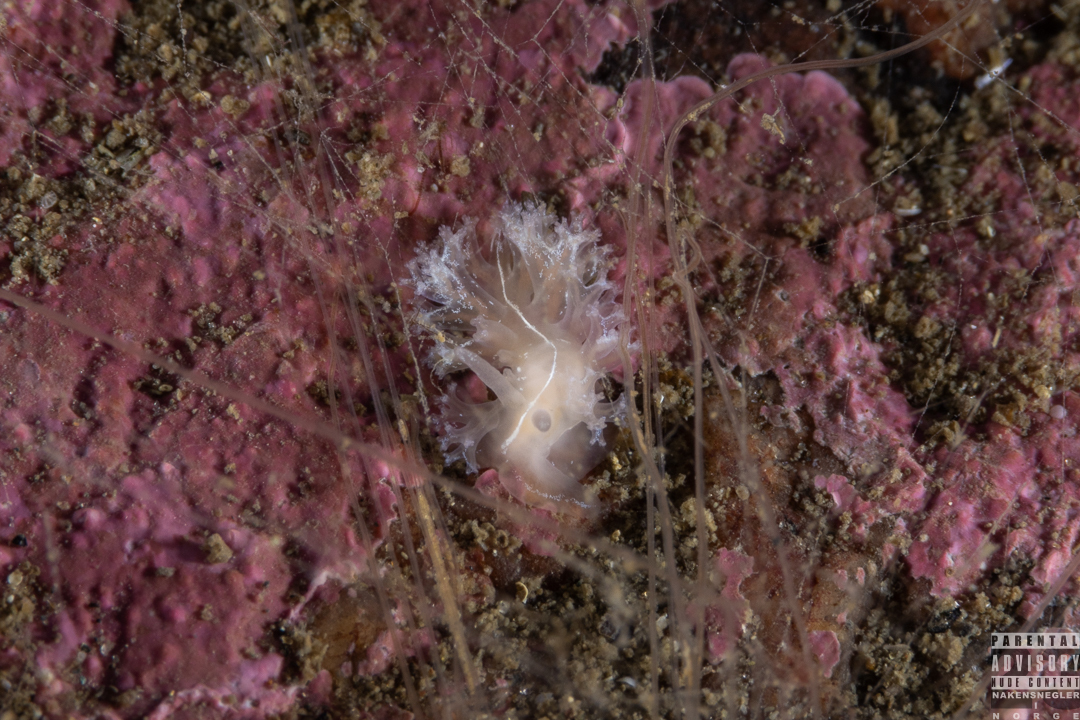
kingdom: Animalia
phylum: Mollusca
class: Gastropoda
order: Nudibranchia
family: Heroidae
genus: Hero
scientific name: Hero formosa
